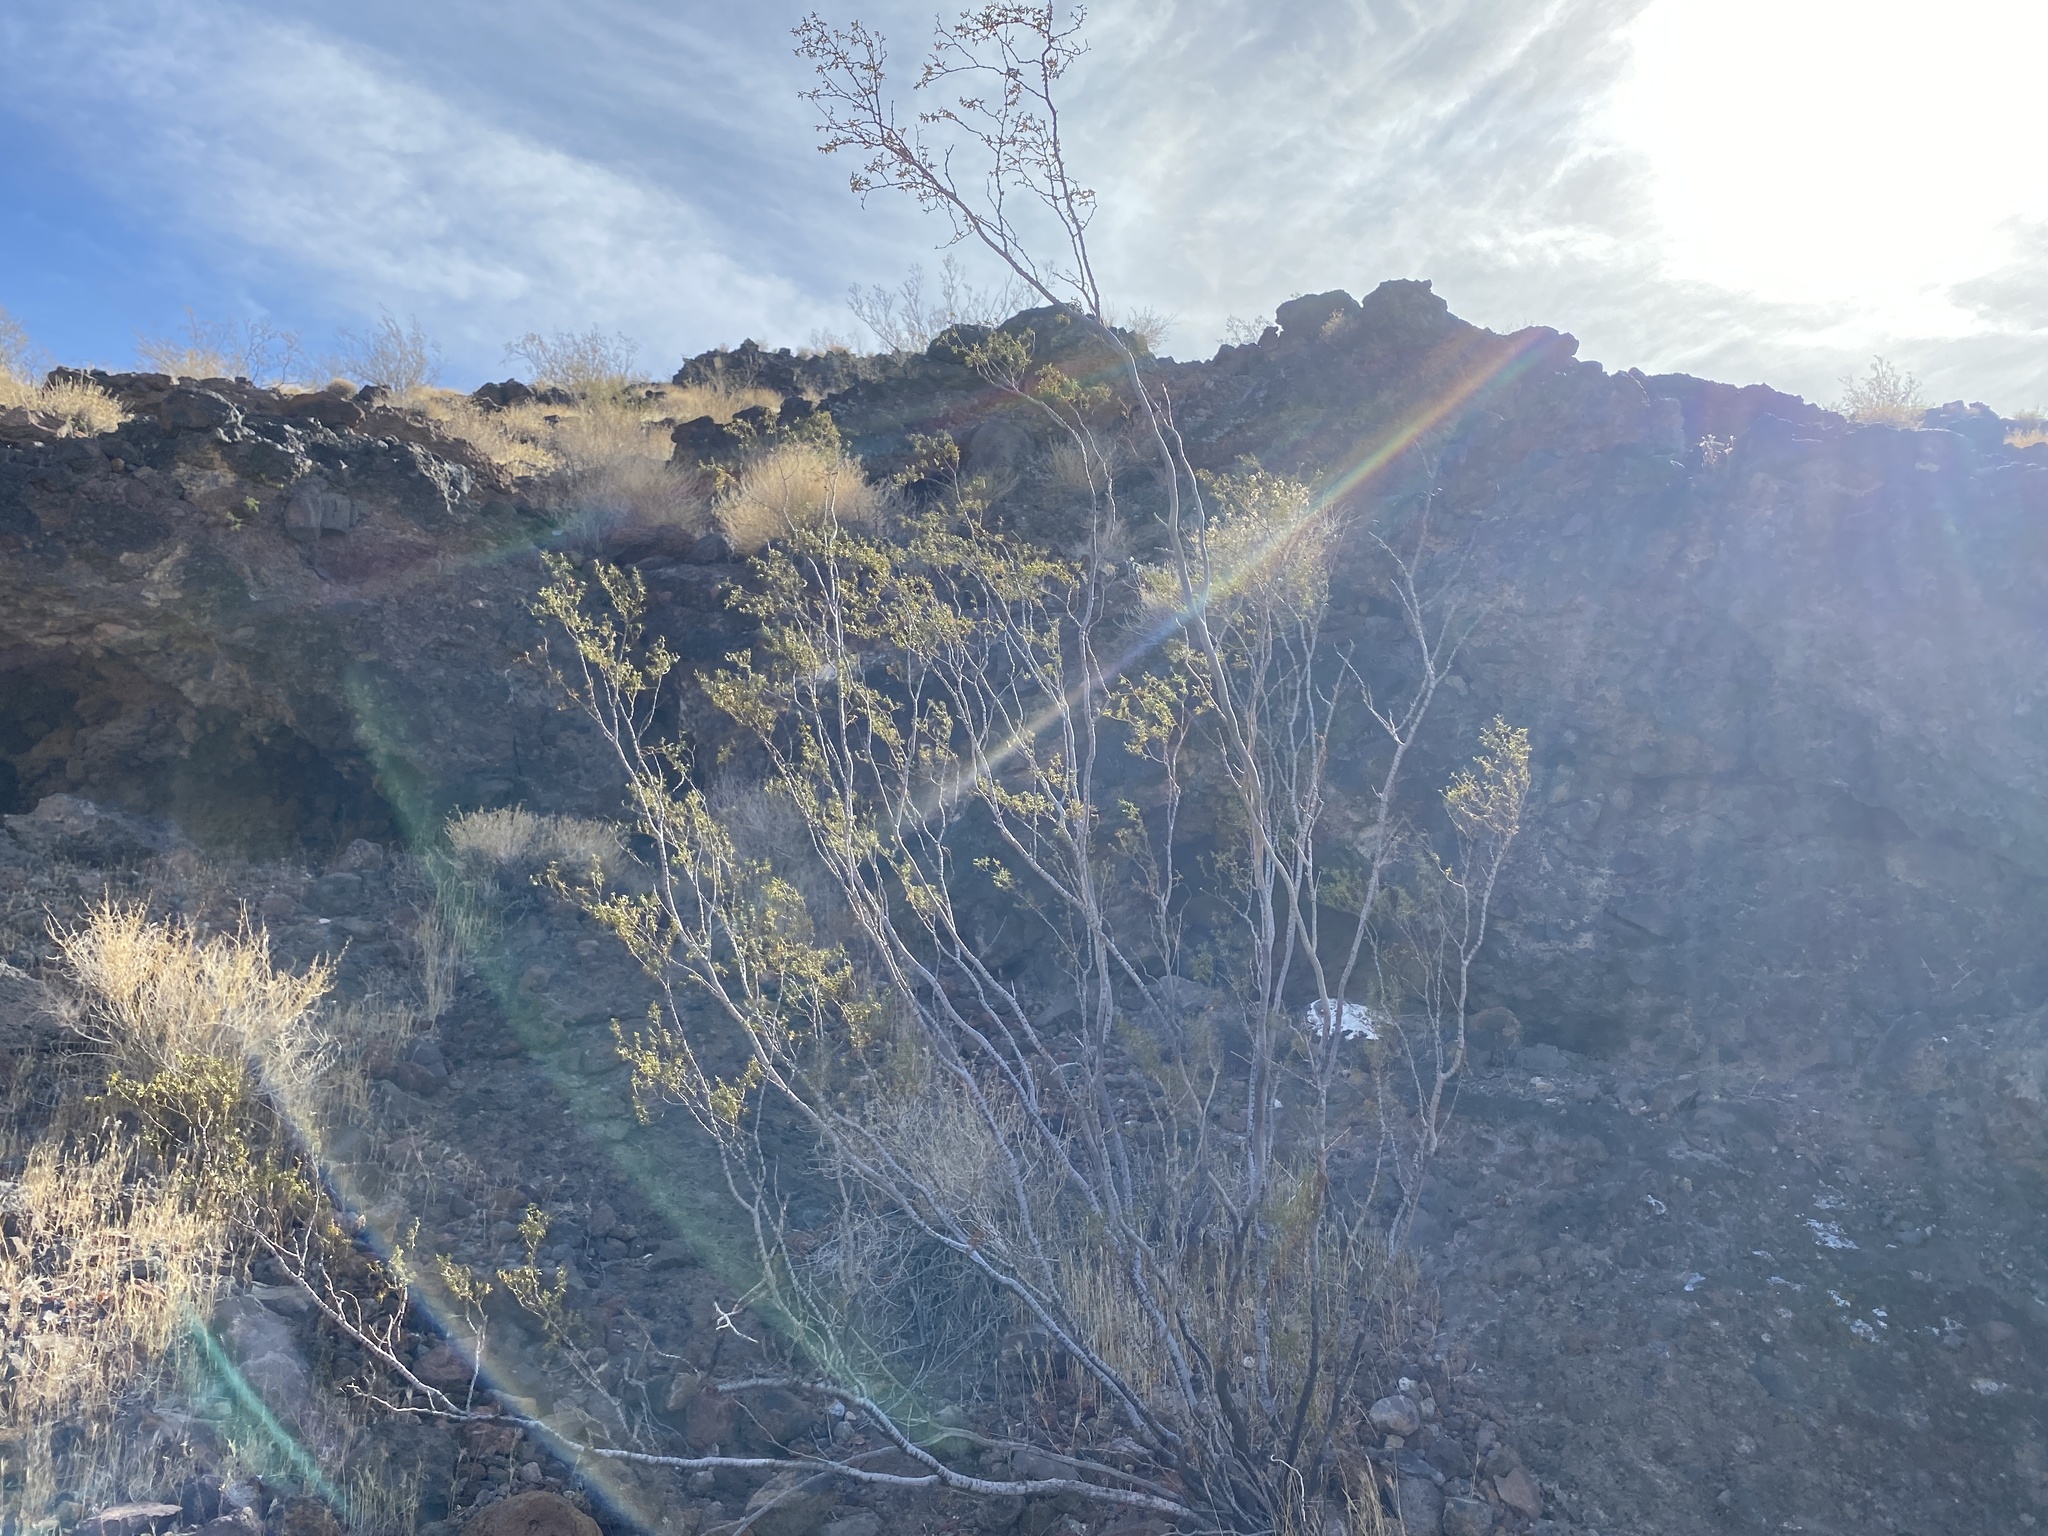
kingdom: Plantae
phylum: Tracheophyta
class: Magnoliopsida
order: Zygophyllales
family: Zygophyllaceae
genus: Larrea
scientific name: Larrea tridentata
